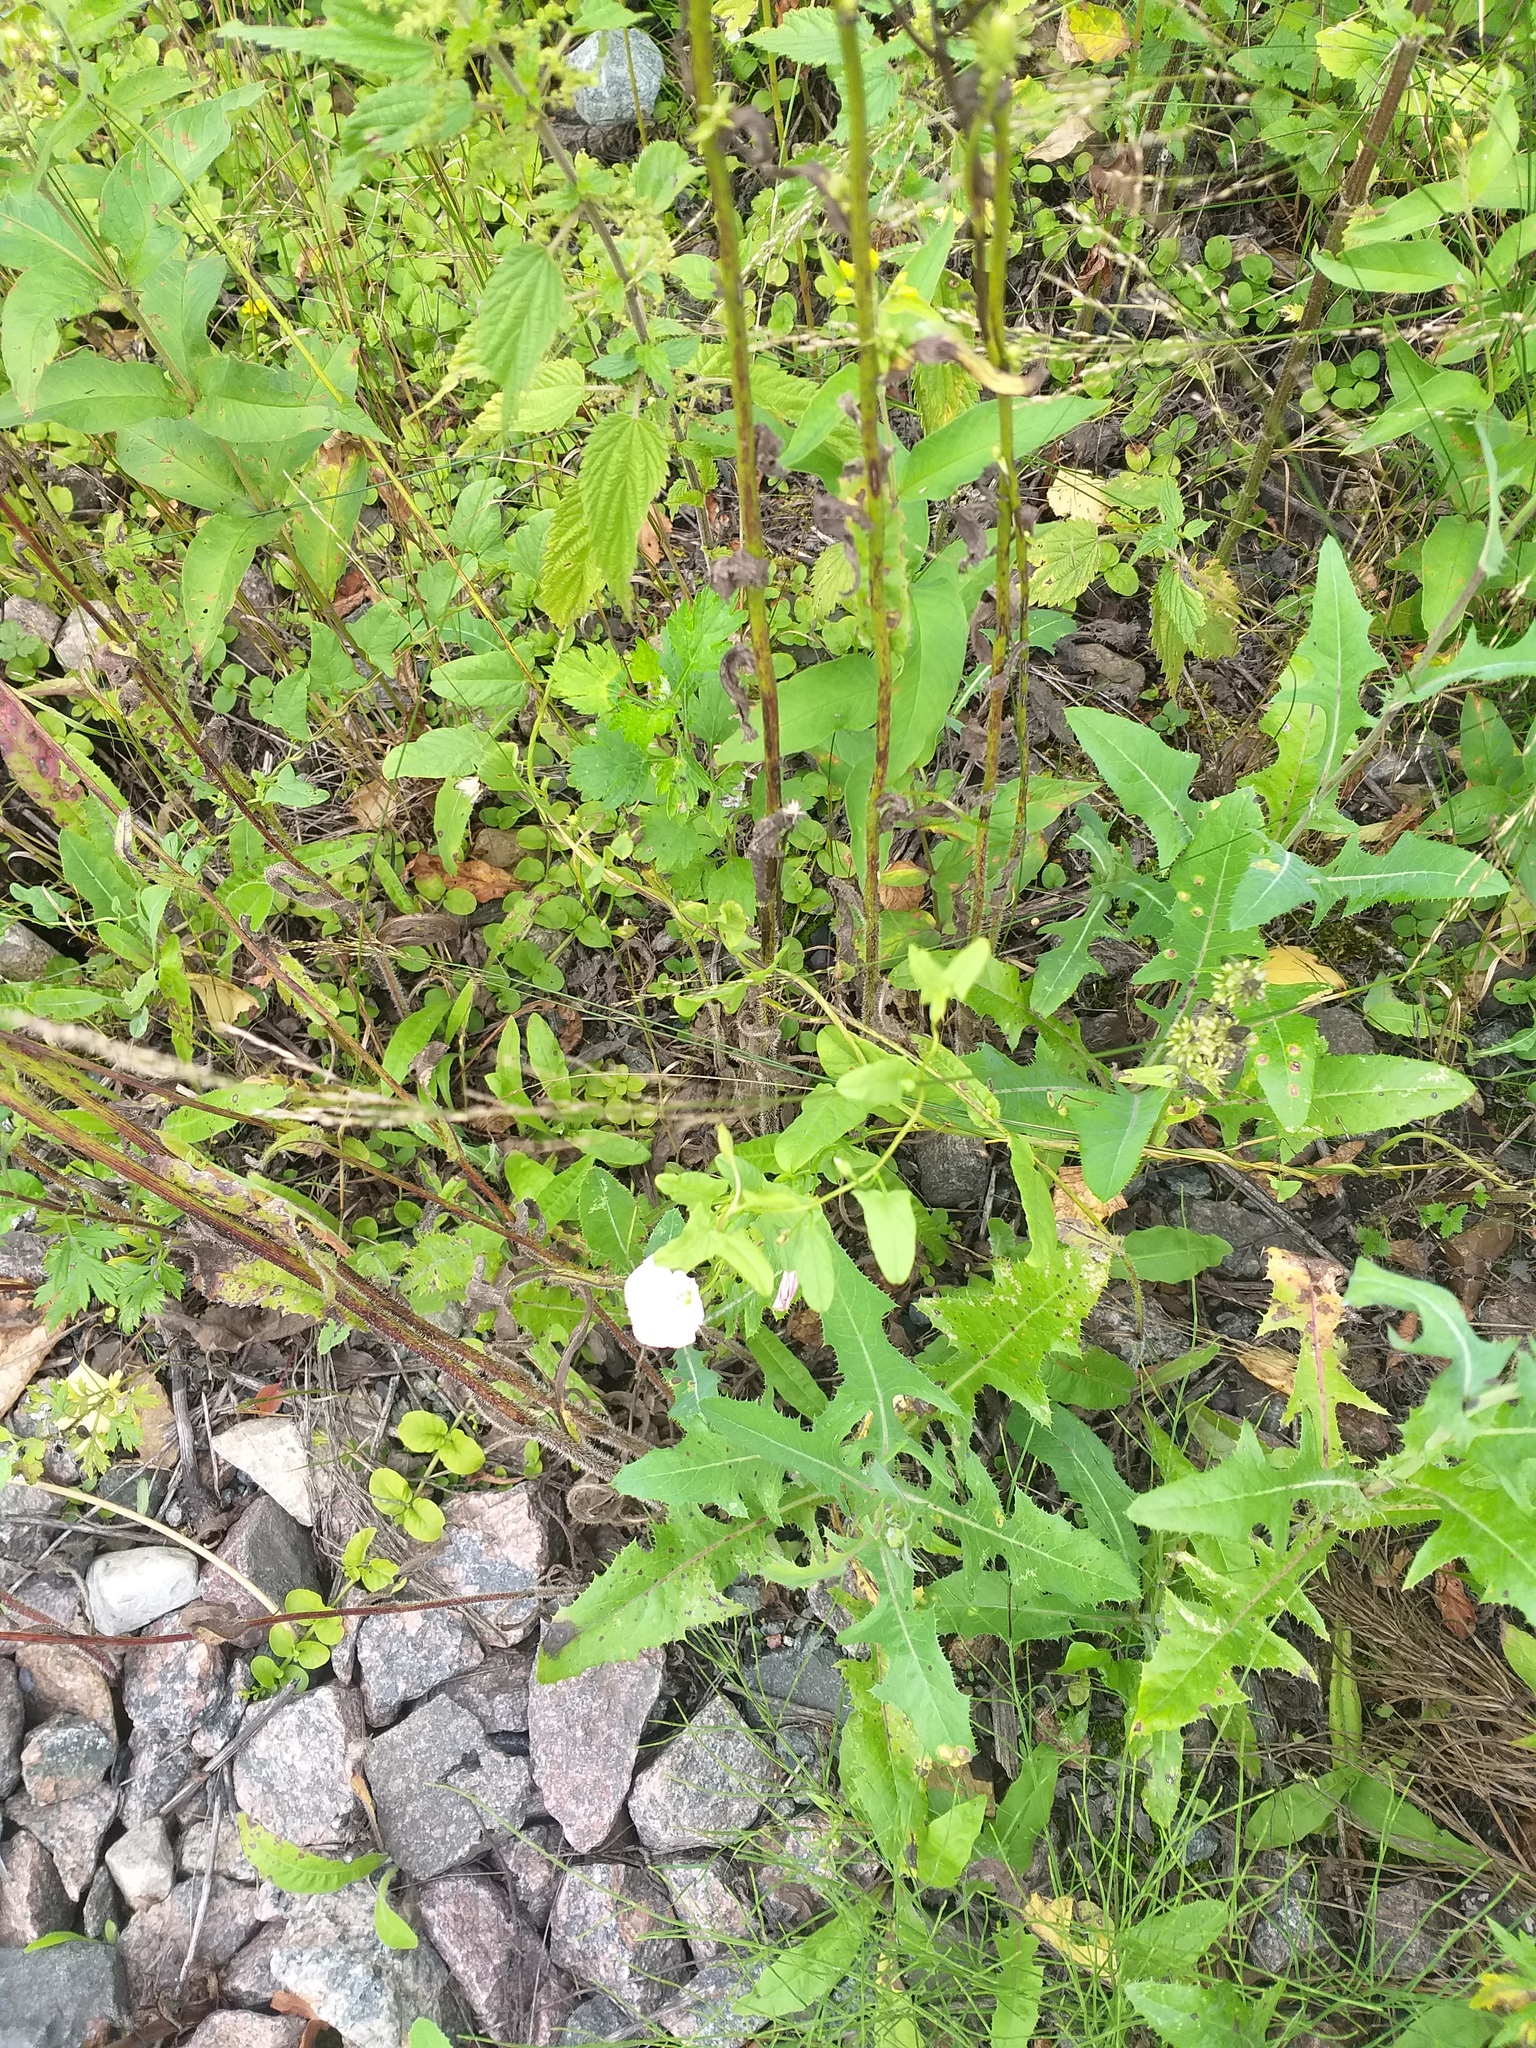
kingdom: Plantae
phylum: Tracheophyta
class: Magnoliopsida
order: Asterales
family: Asteraceae
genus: Sonchus
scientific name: Sonchus arvensis
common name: Perennial sow-thistle
